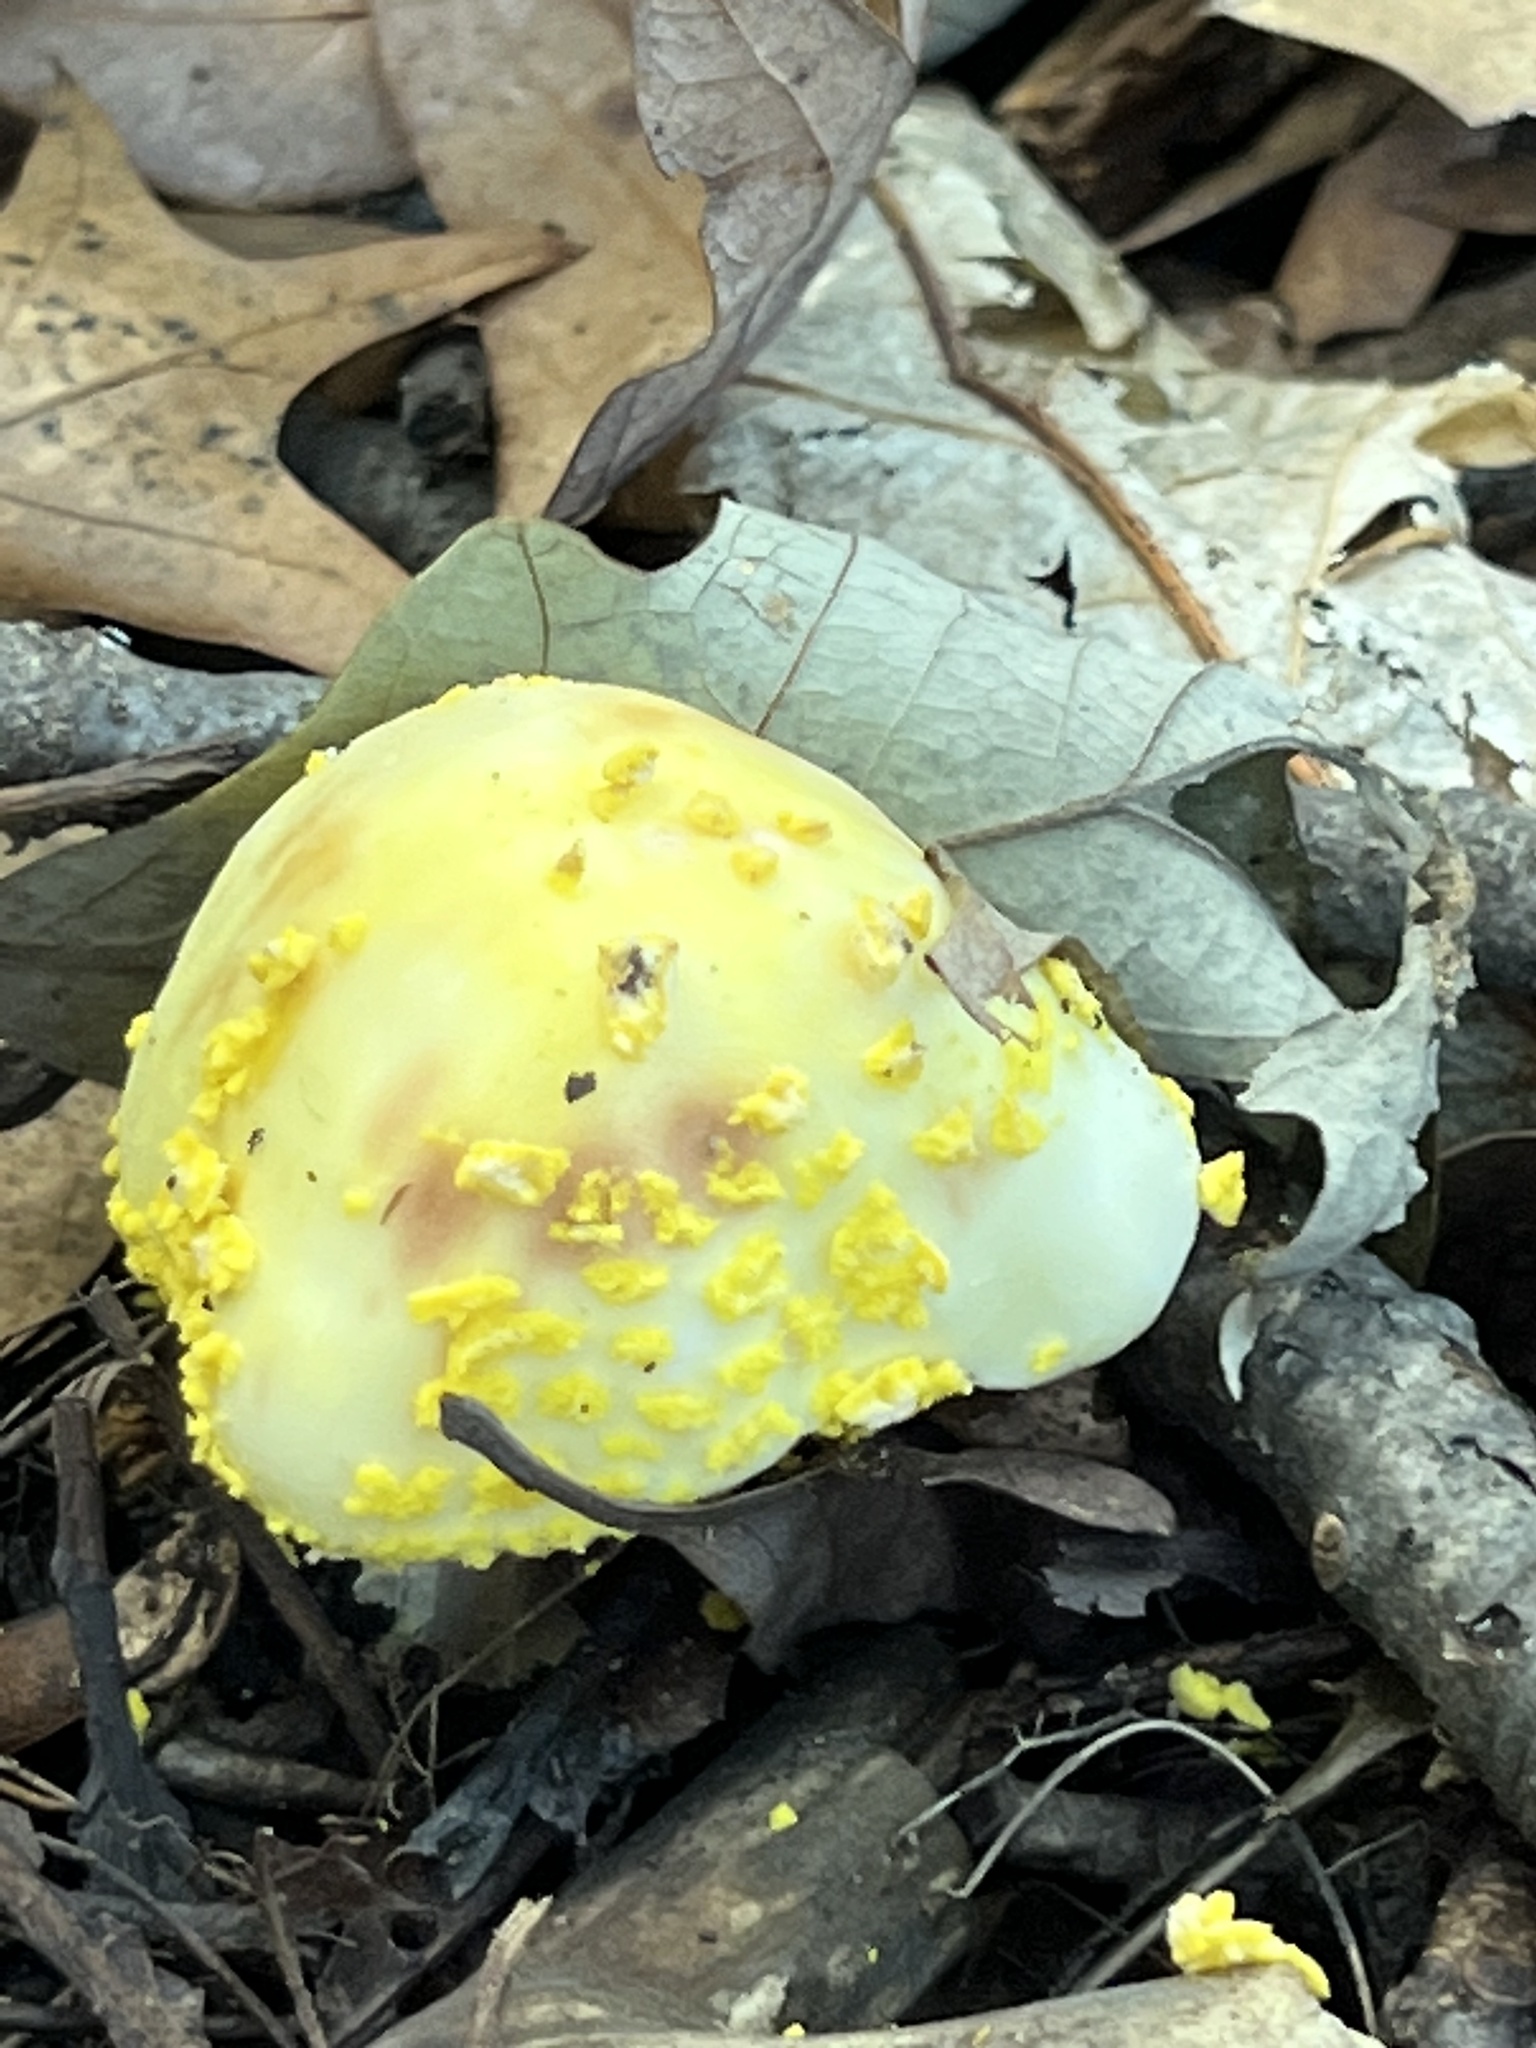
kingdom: Fungi
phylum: Basidiomycota
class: Agaricomycetes
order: Agaricales
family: Amanitaceae
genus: Amanita
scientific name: Amanita flavorubens
